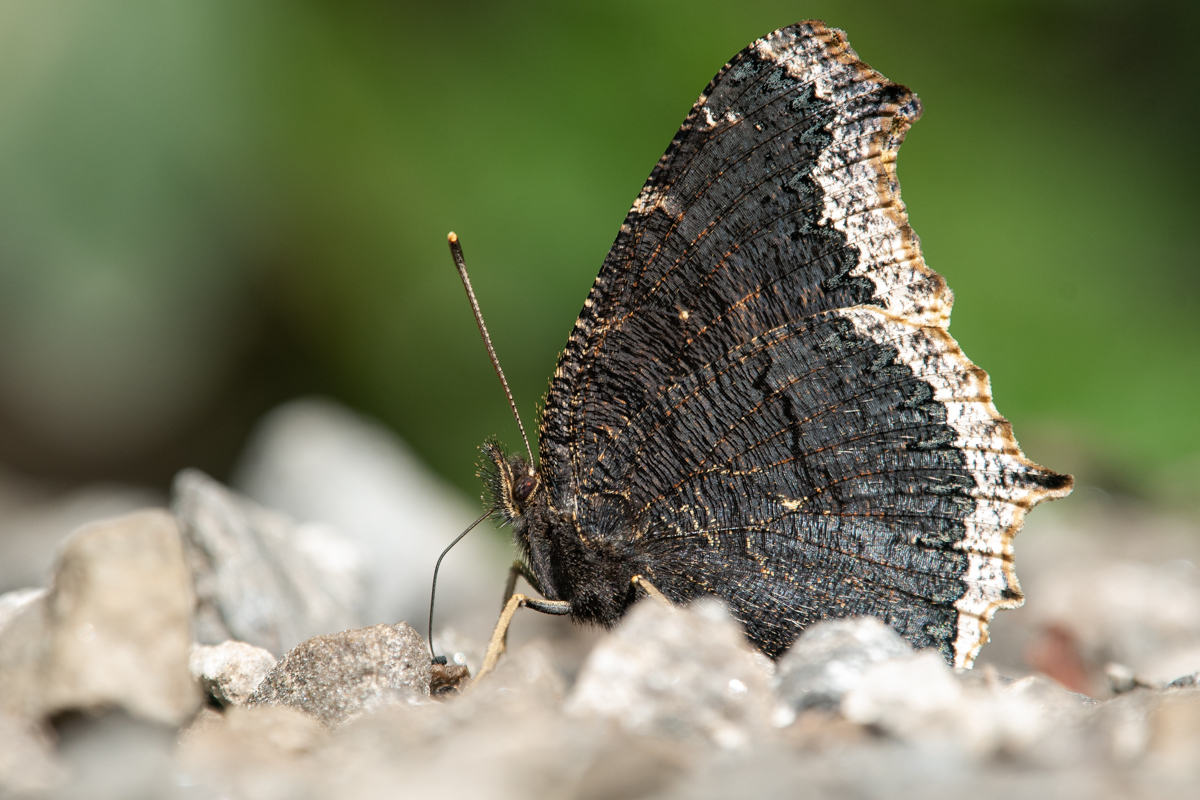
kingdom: Animalia
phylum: Arthropoda
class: Insecta
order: Lepidoptera
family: Nymphalidae
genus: Nymphalis
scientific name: Nymphalis antiopa
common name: Camberwell beauty
